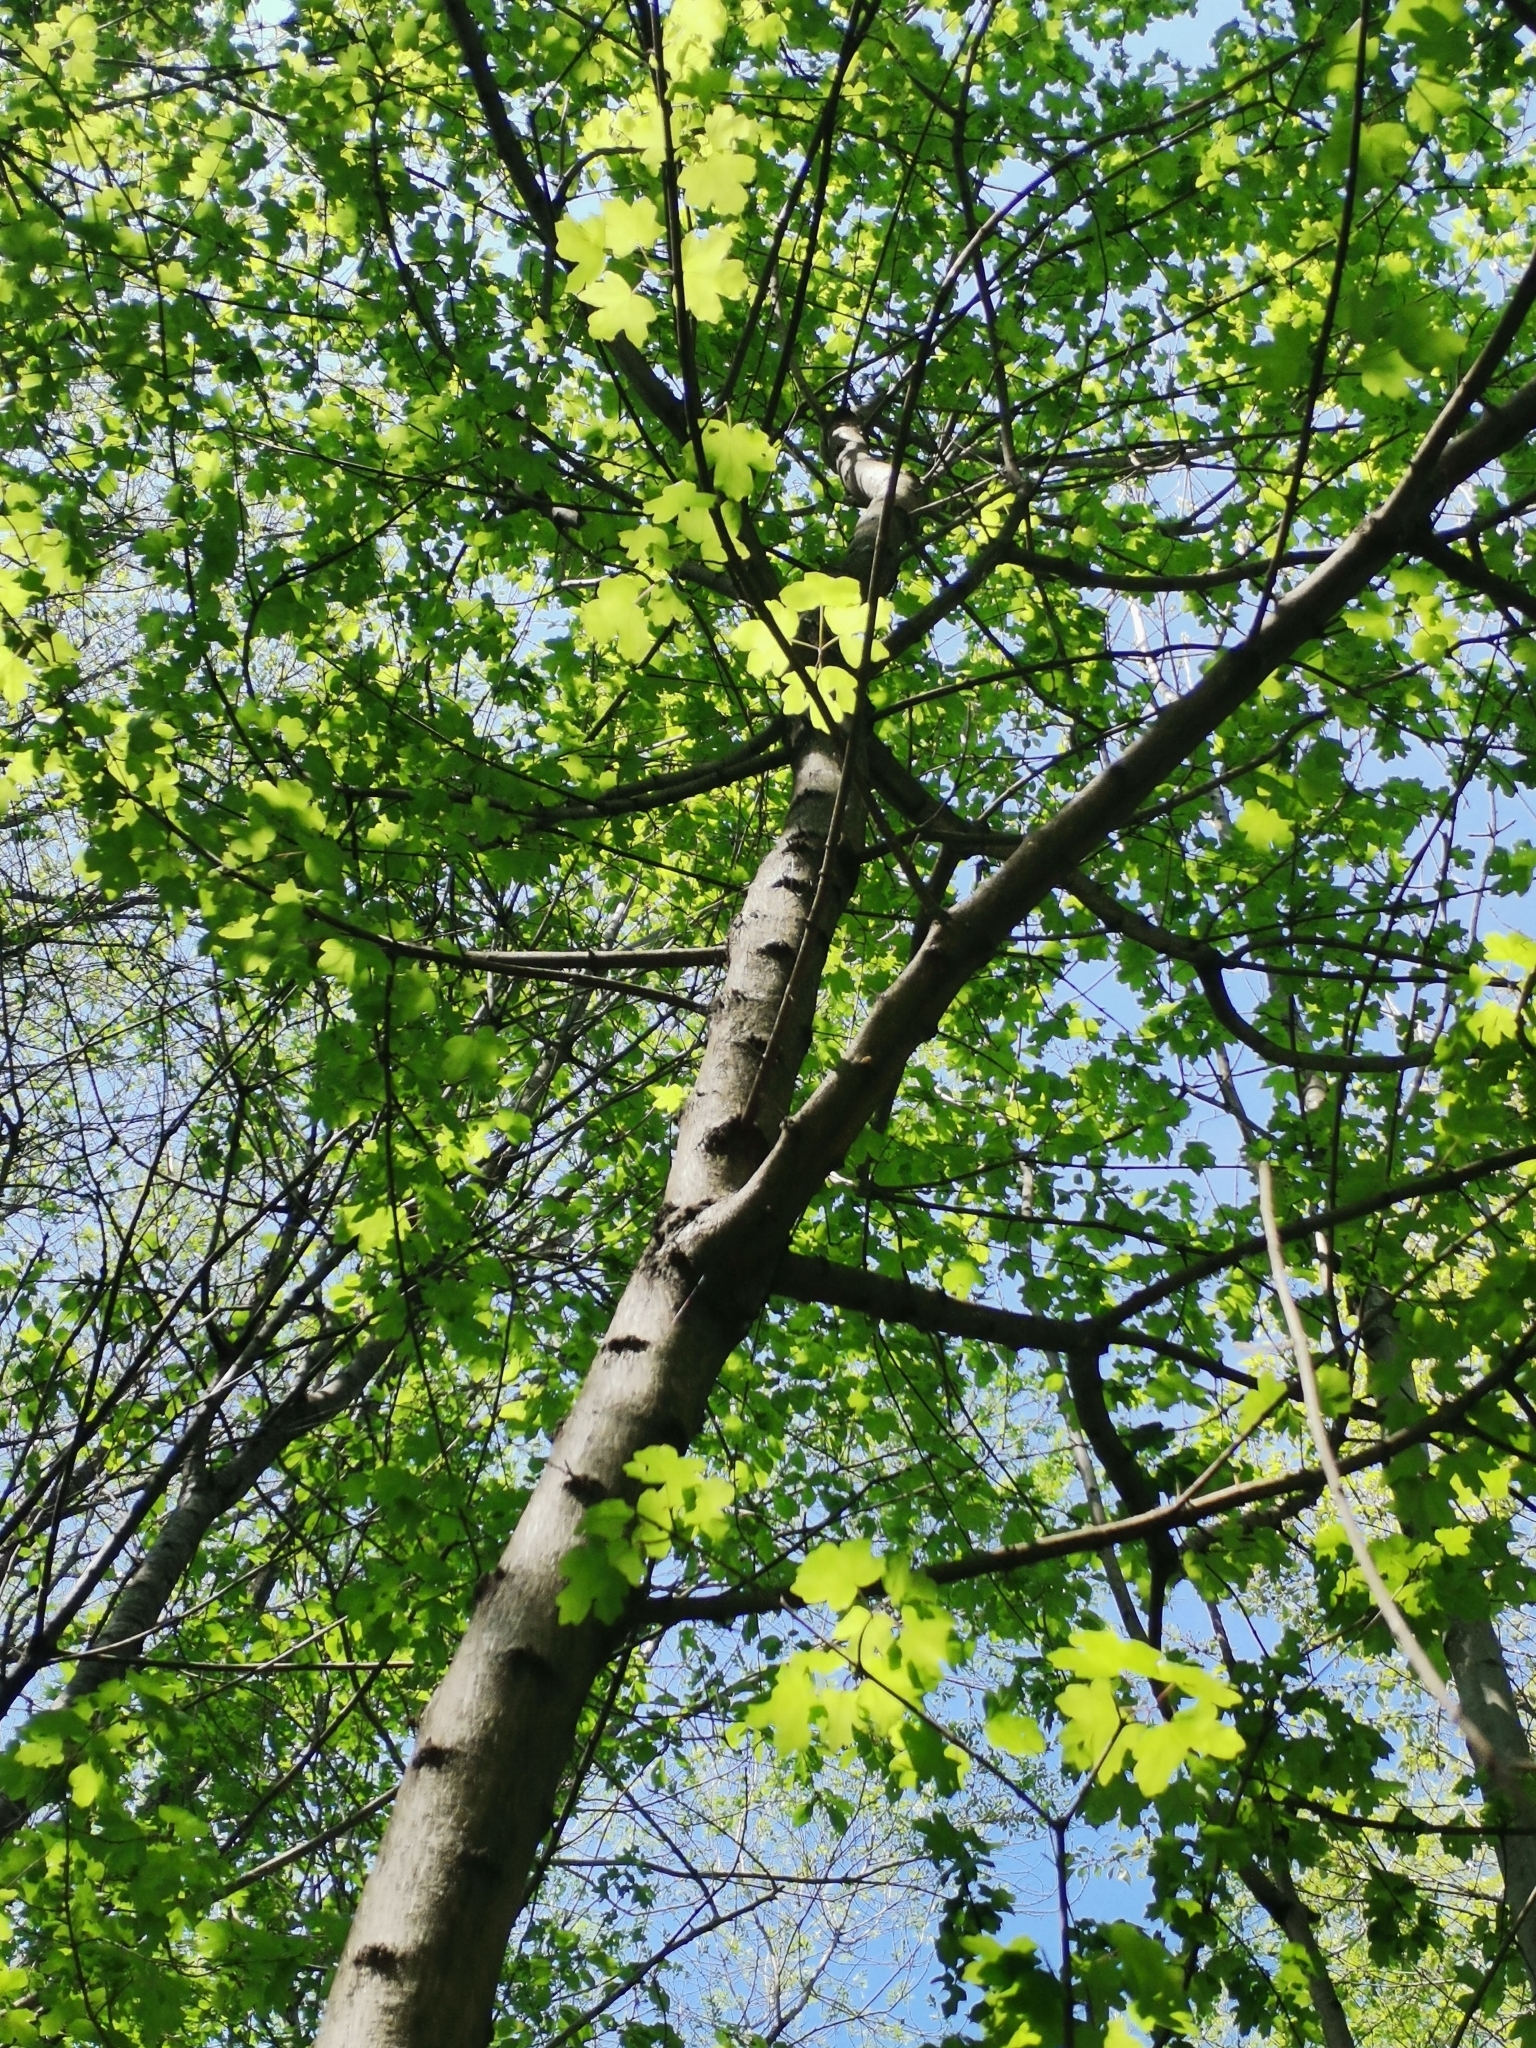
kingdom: Plantae
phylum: Tracheophyta
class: Magnoliopsida
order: Sapindales
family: Sapindaceae
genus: Acer
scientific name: Acer campestre
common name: Field maple
